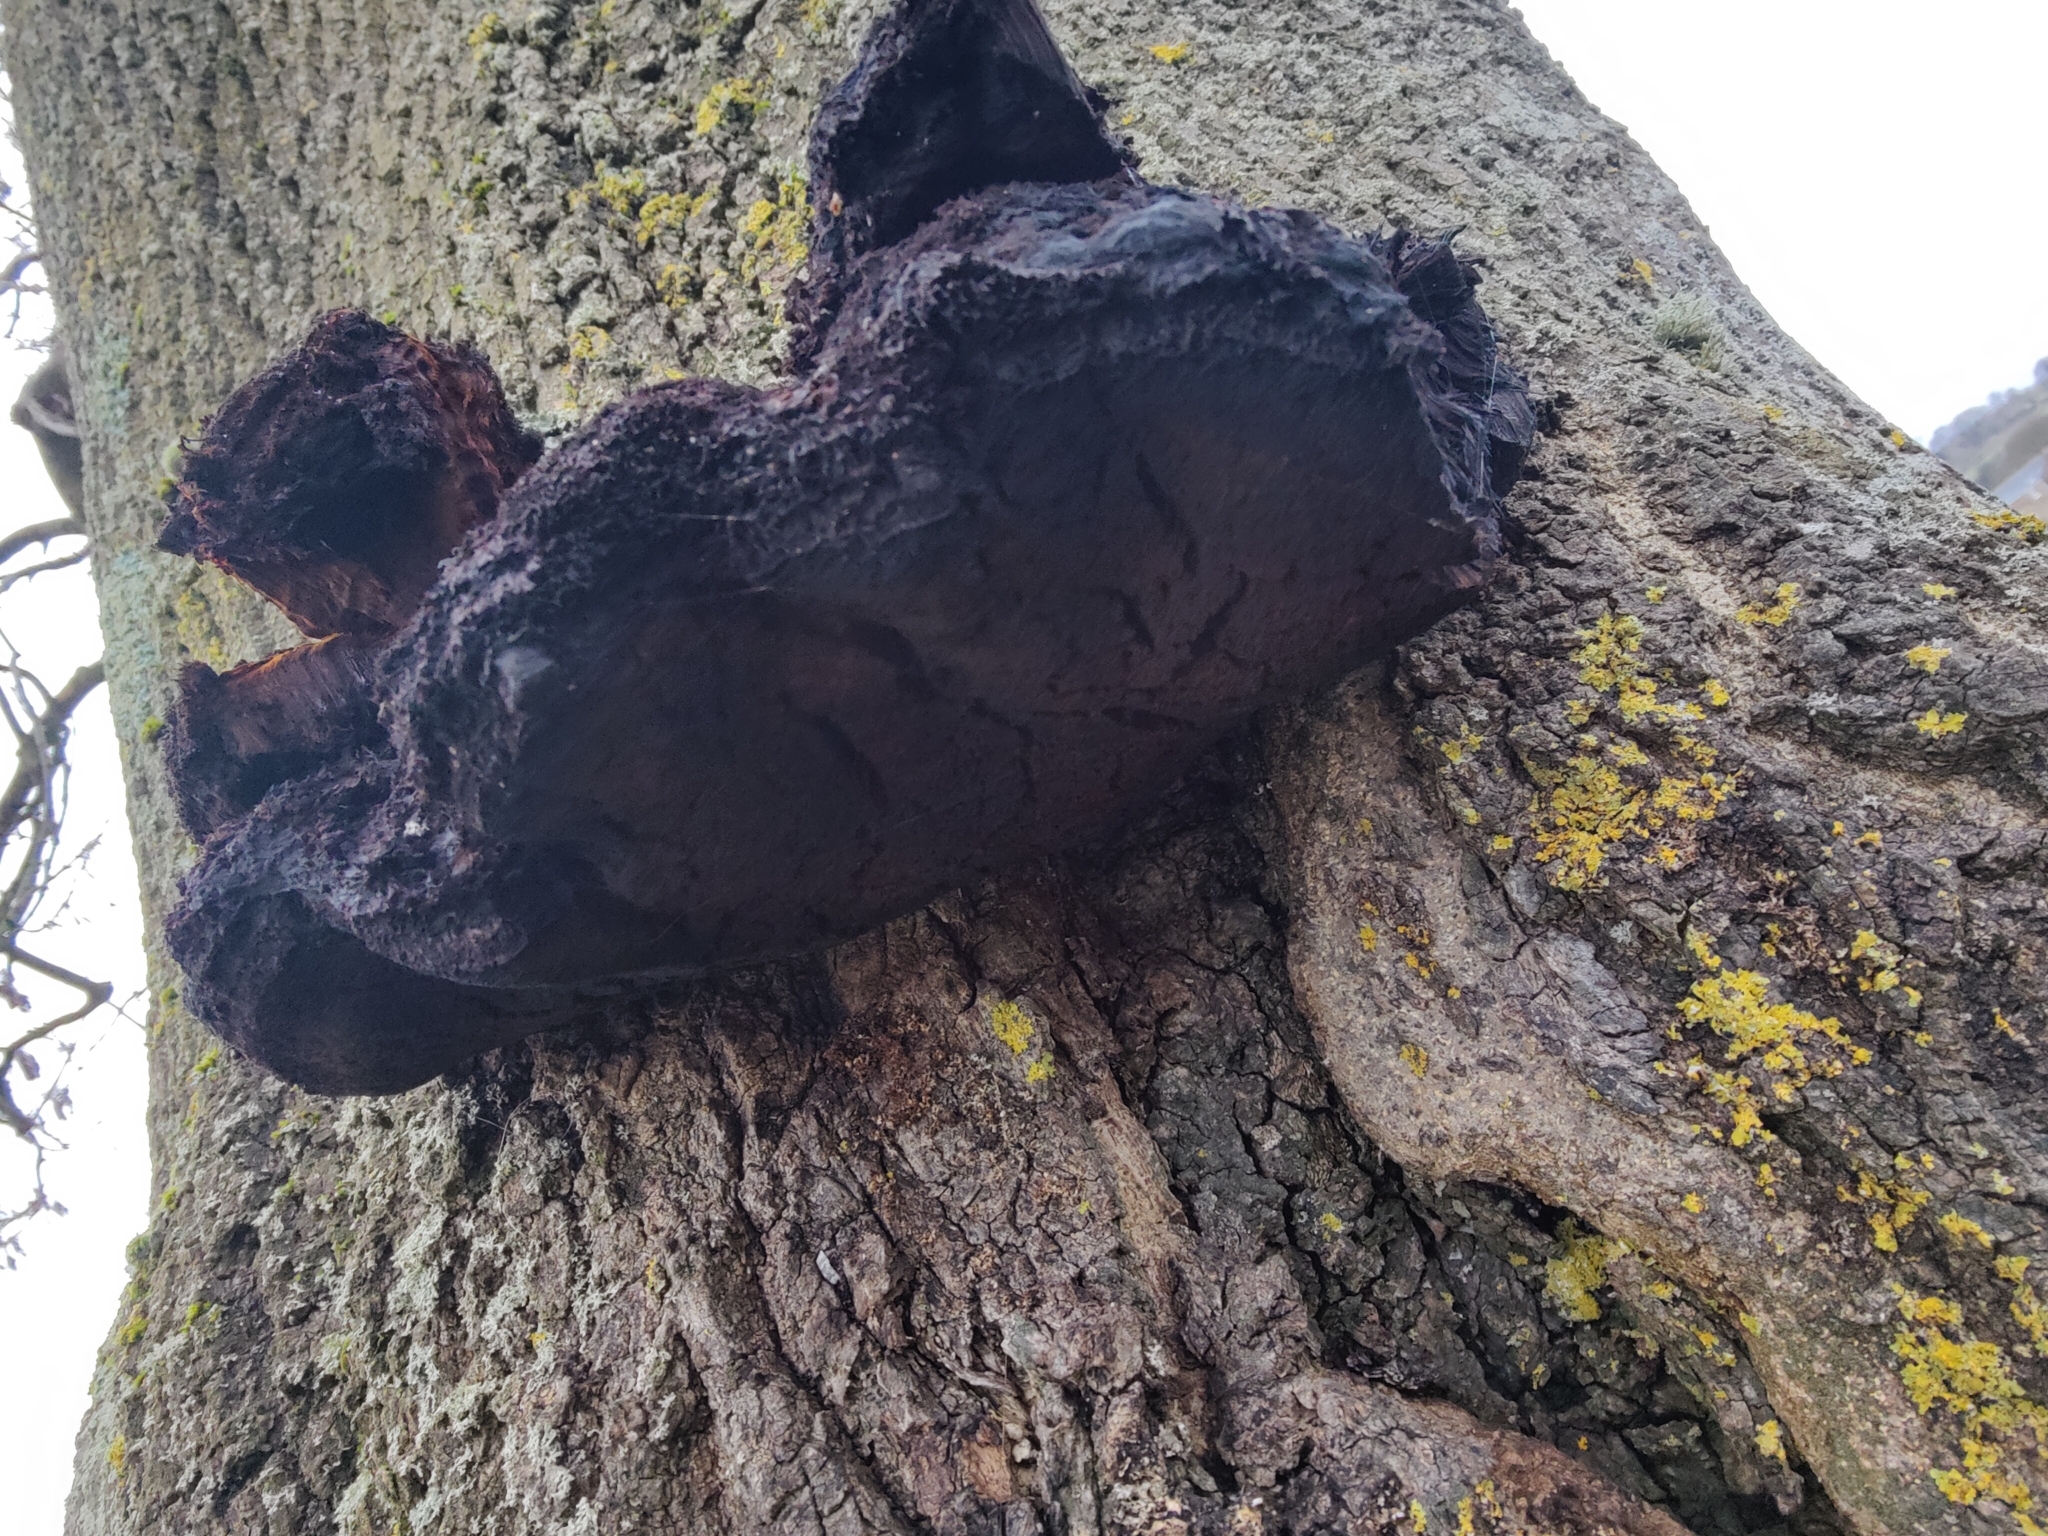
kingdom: Fungi
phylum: Basidiomycota
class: Agaricomycetes
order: Hymenochaetales
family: Hymenochaetaceae
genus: Inonotus
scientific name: Inonotus hispidus
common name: Shaggy bracket
